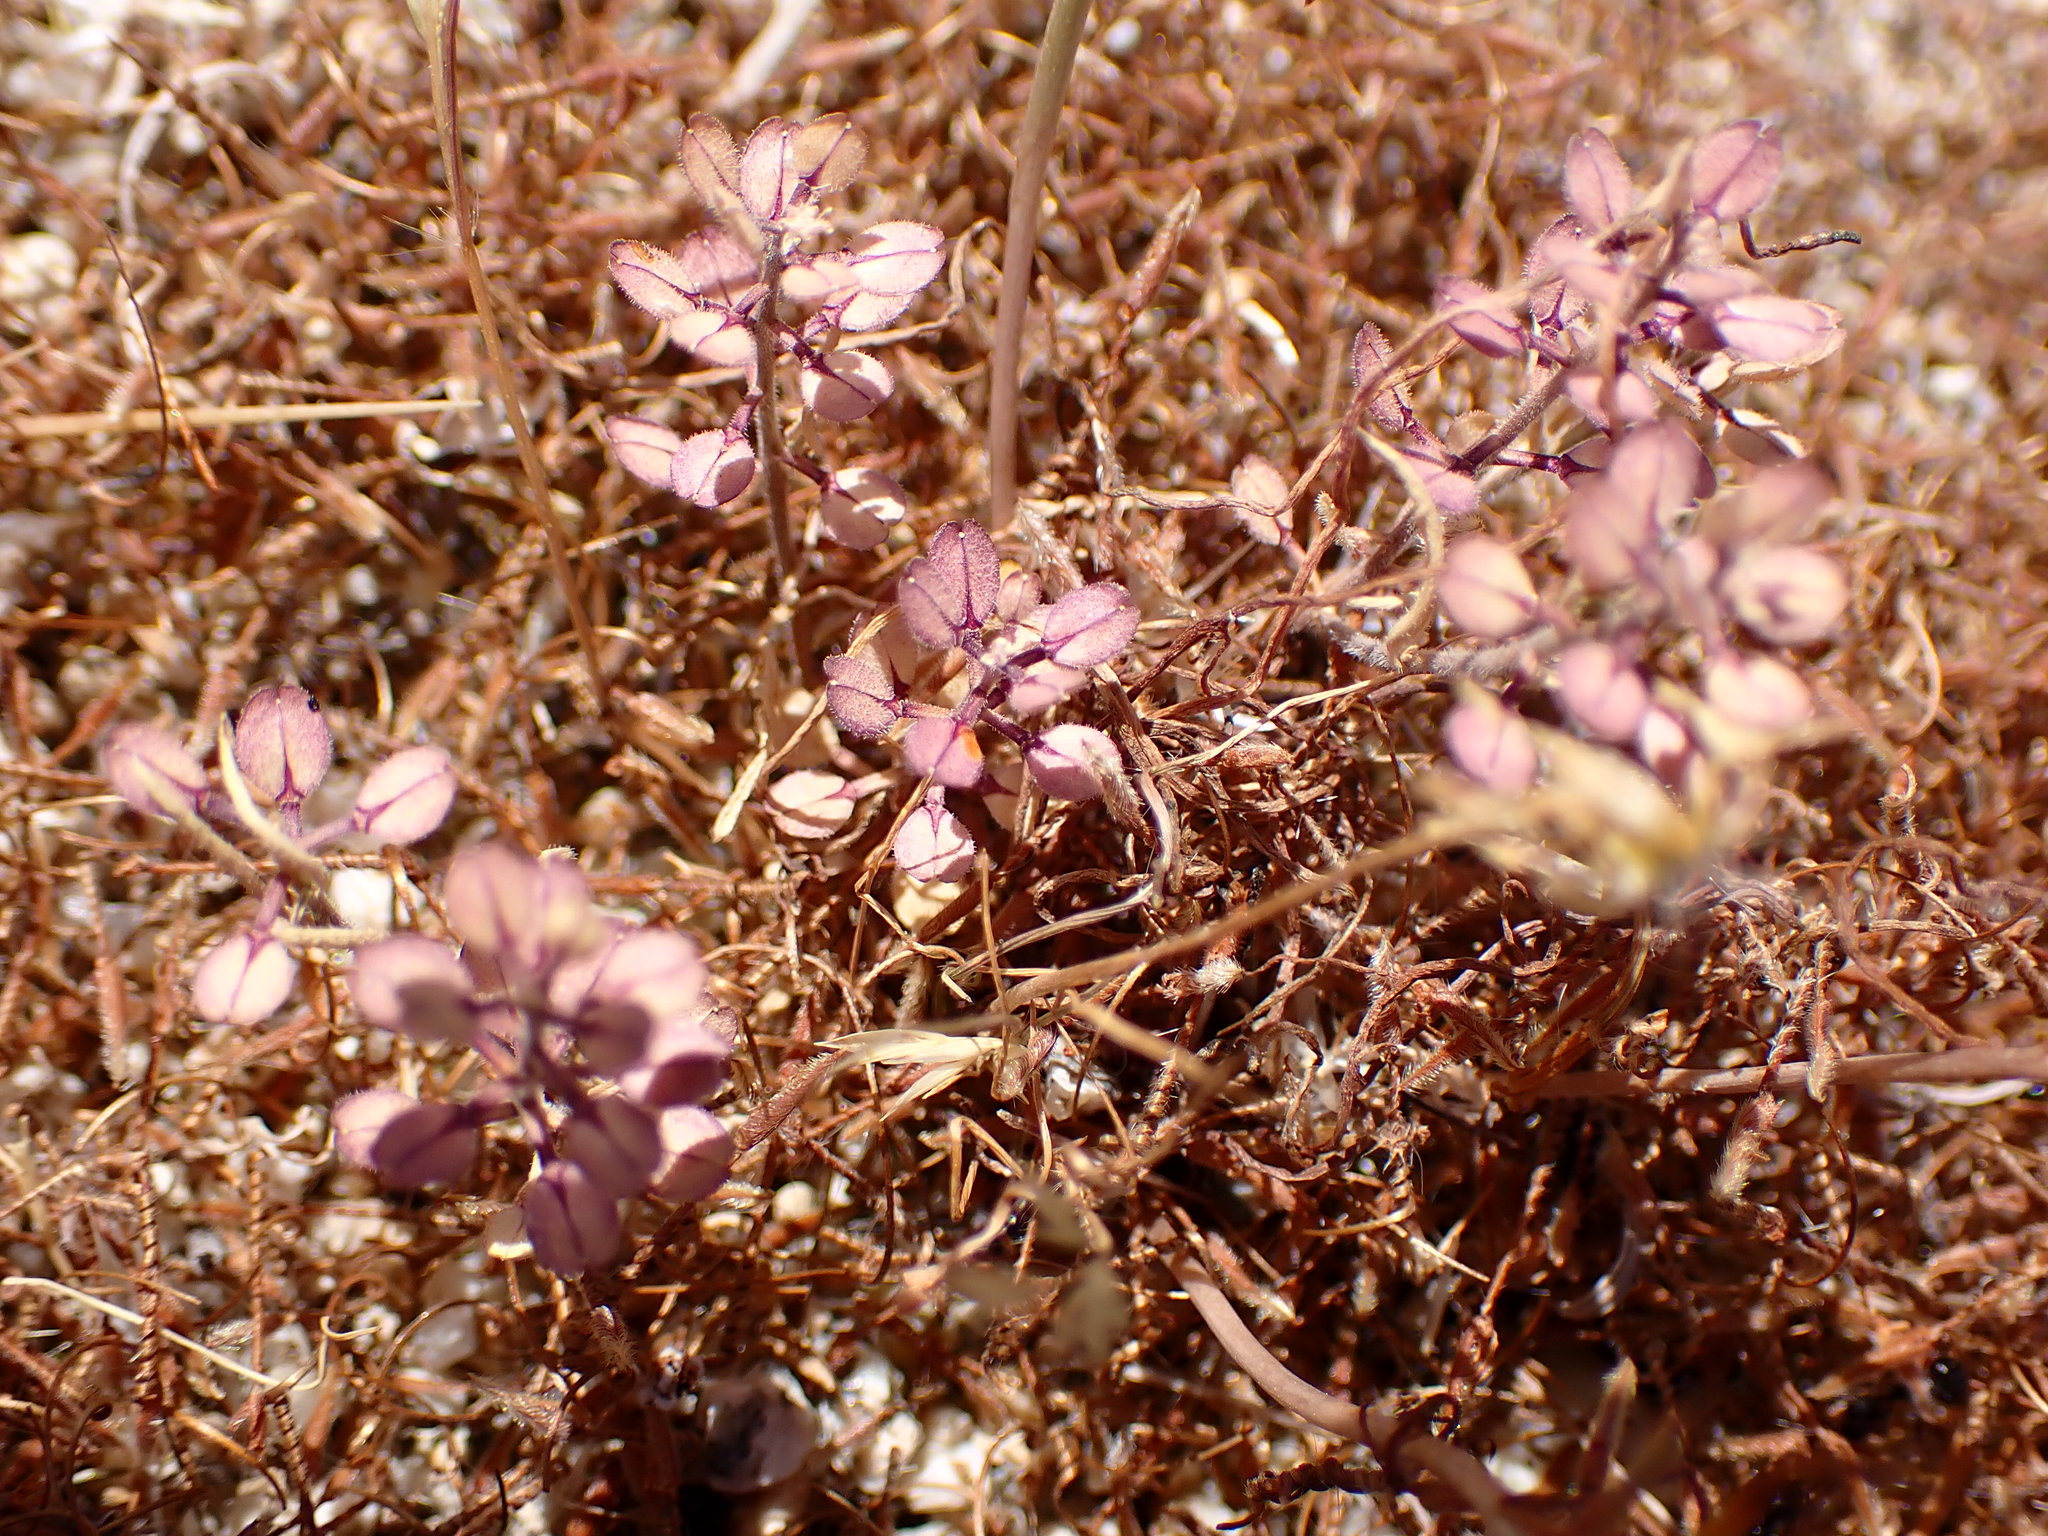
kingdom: Plantae
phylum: Tracheophyta
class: Magnoliopsida
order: Brassicales
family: Brassicaceae
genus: Lepidium
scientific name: Lepidium lasiocarpum
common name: Hairy-pod pepperwort
